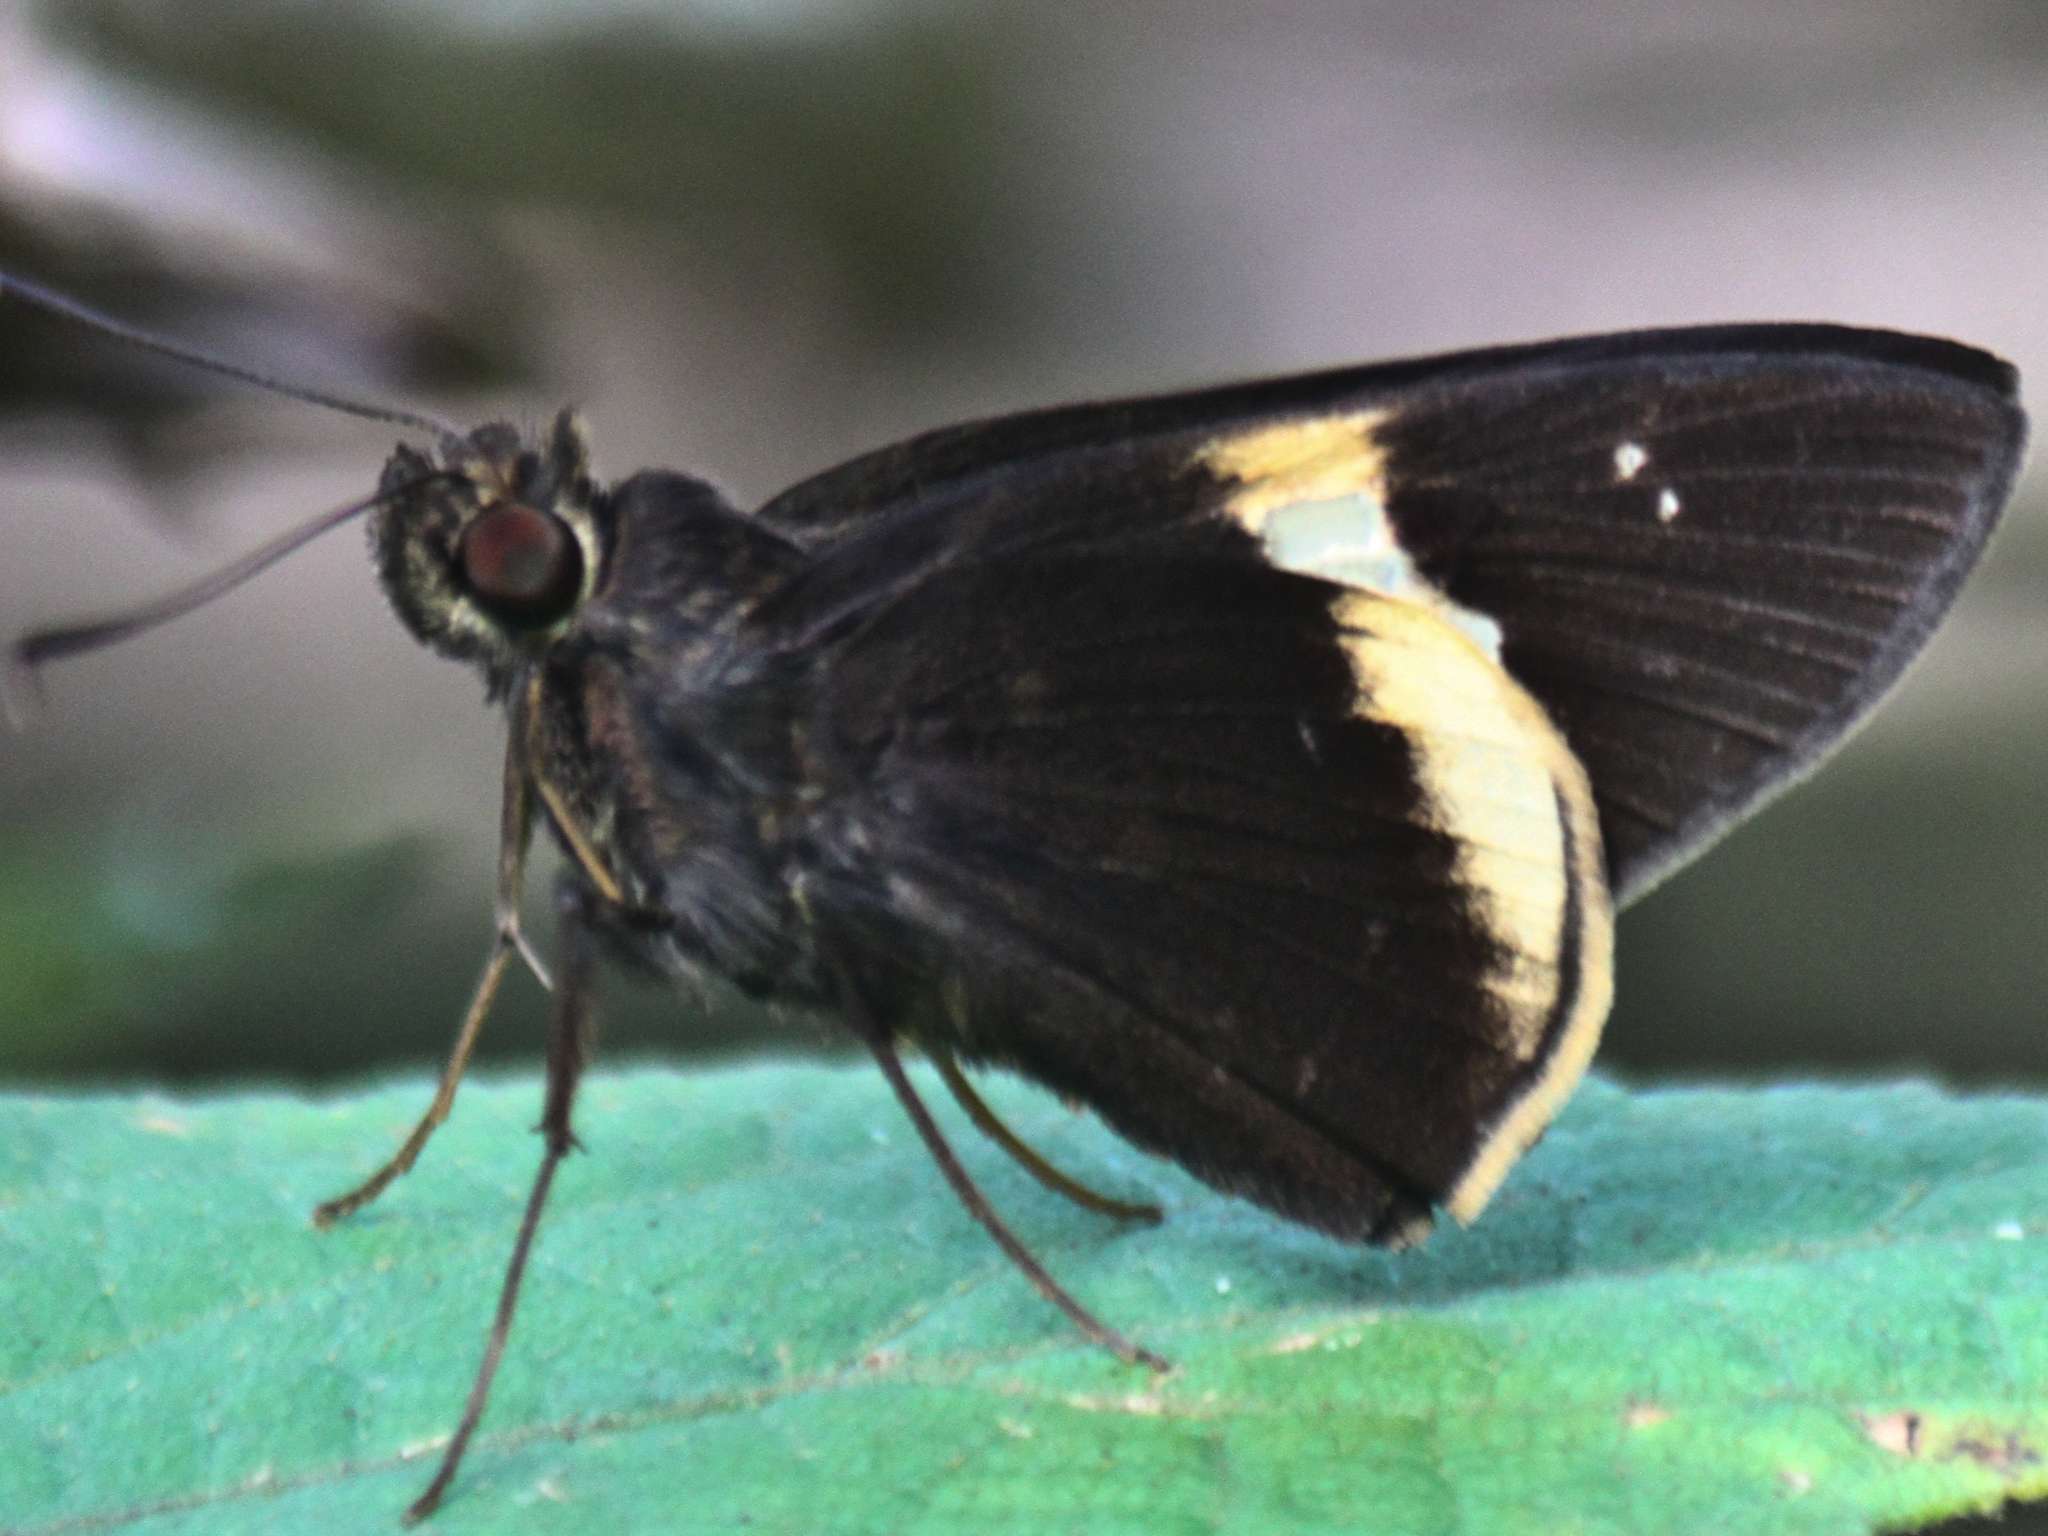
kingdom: Animalia
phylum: Arthropoda
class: Insecta
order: Lepidoptera
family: Hesperiidae
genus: Lotongus
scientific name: Lotongus calathus
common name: White-tipped palmer
